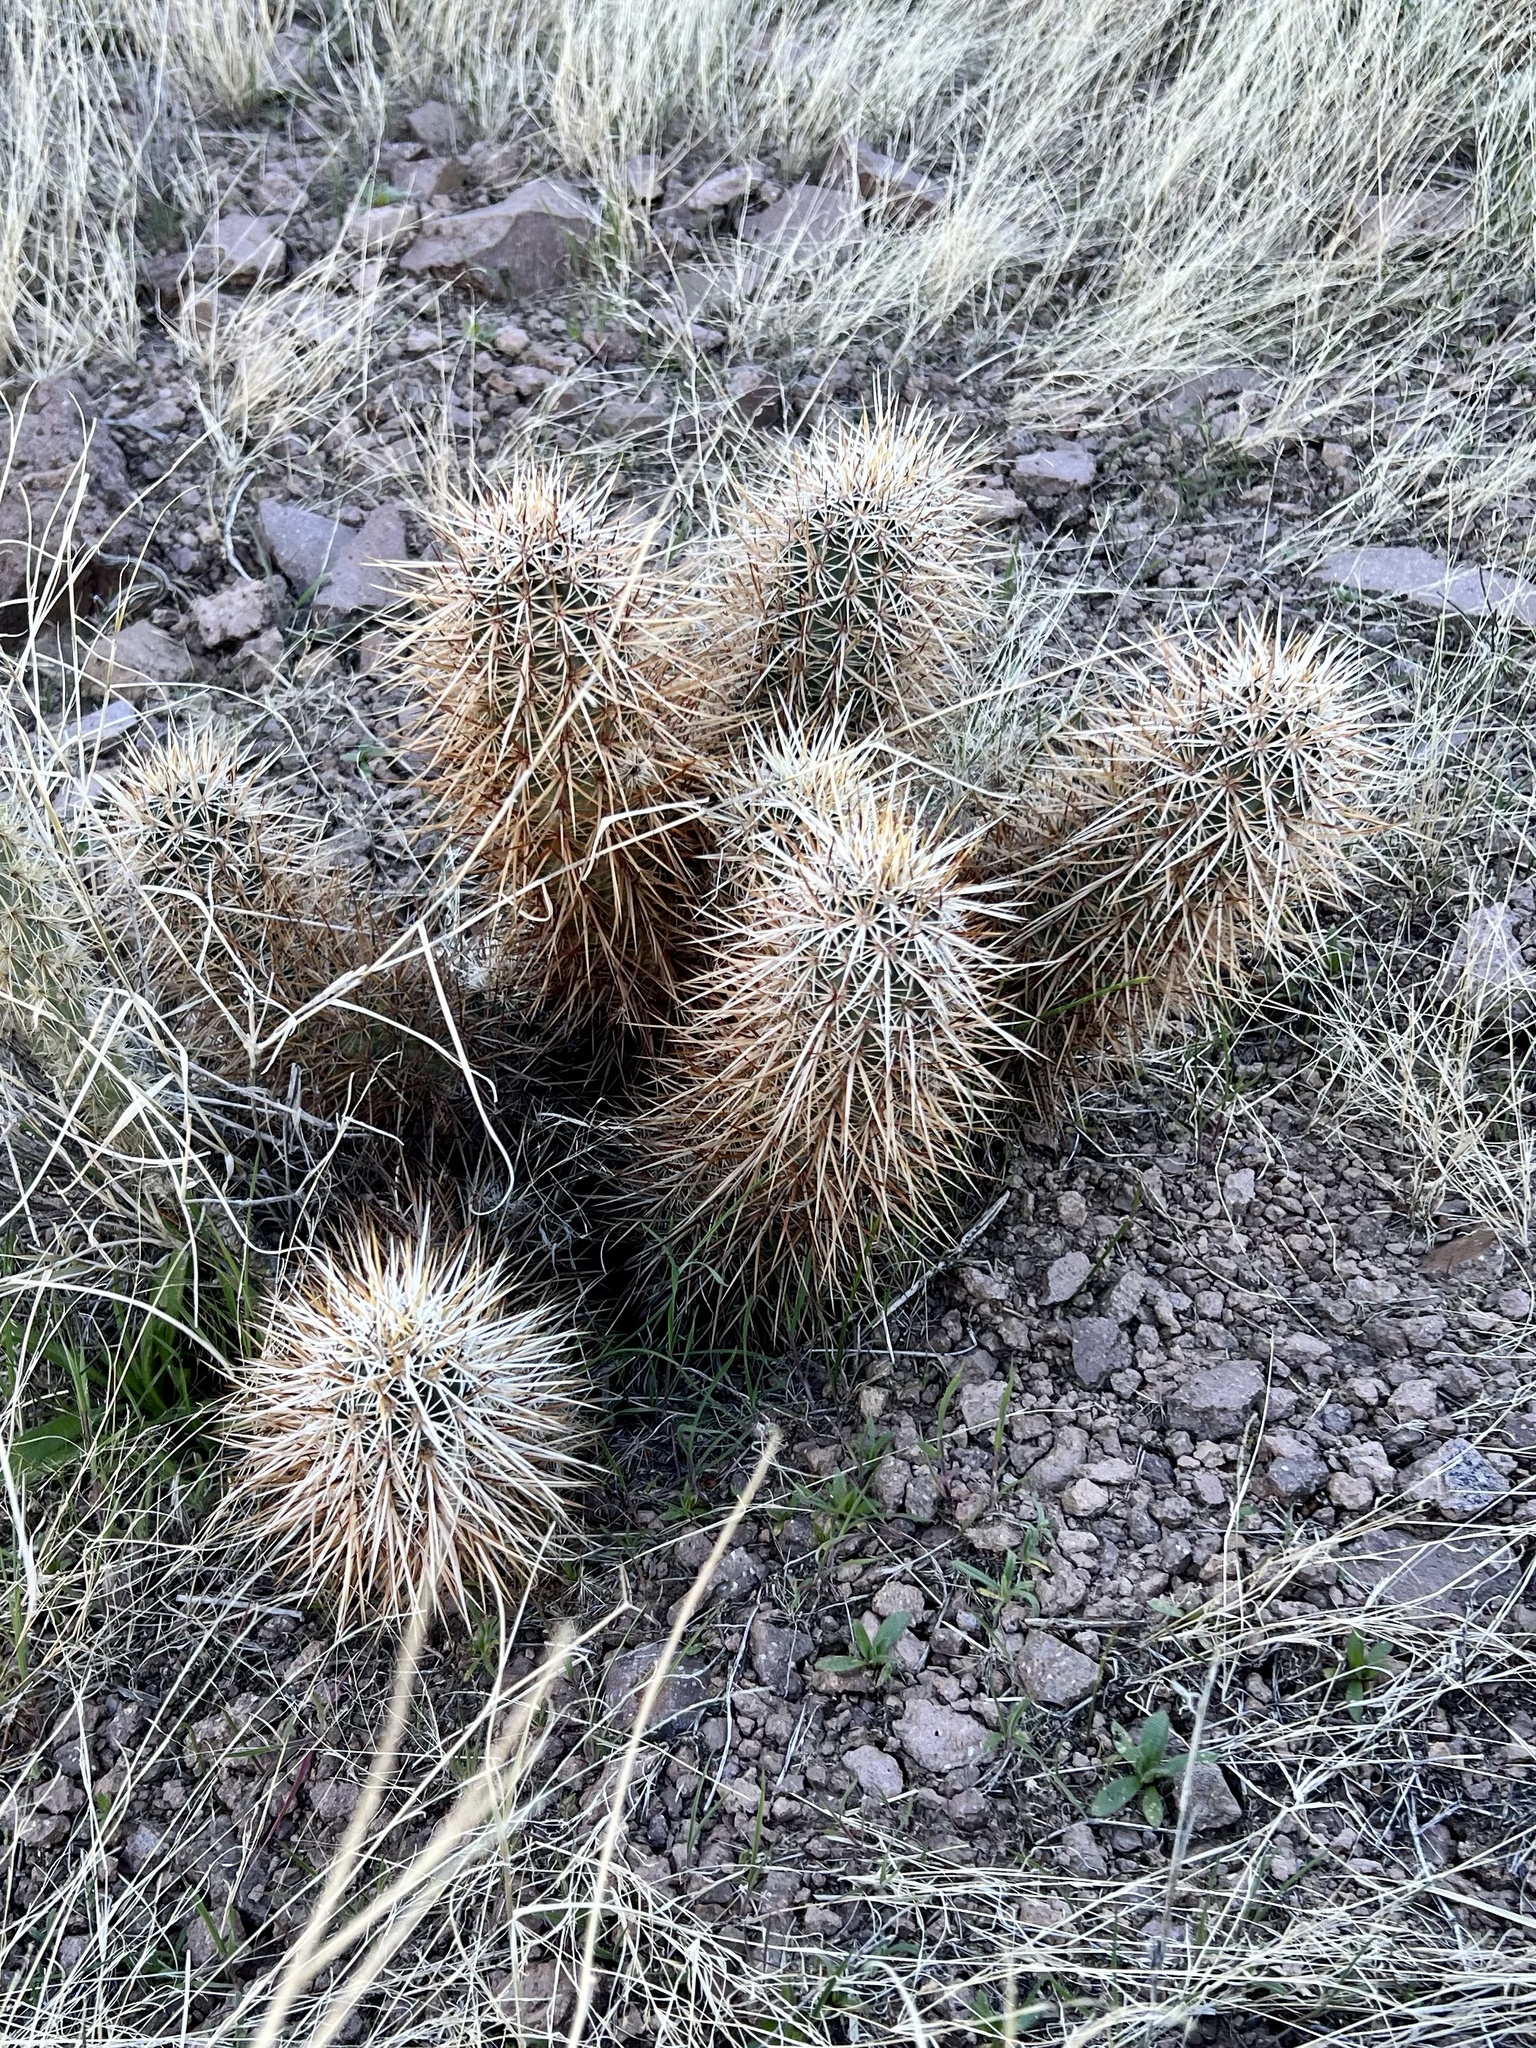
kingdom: Plantae
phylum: Tracheophyta
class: Magnoliopsida
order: Caryophyllales
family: Cactaceae
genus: Echinocereus
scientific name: Echinocereus engelmannii
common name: Engelmann's hedgehog cactus
